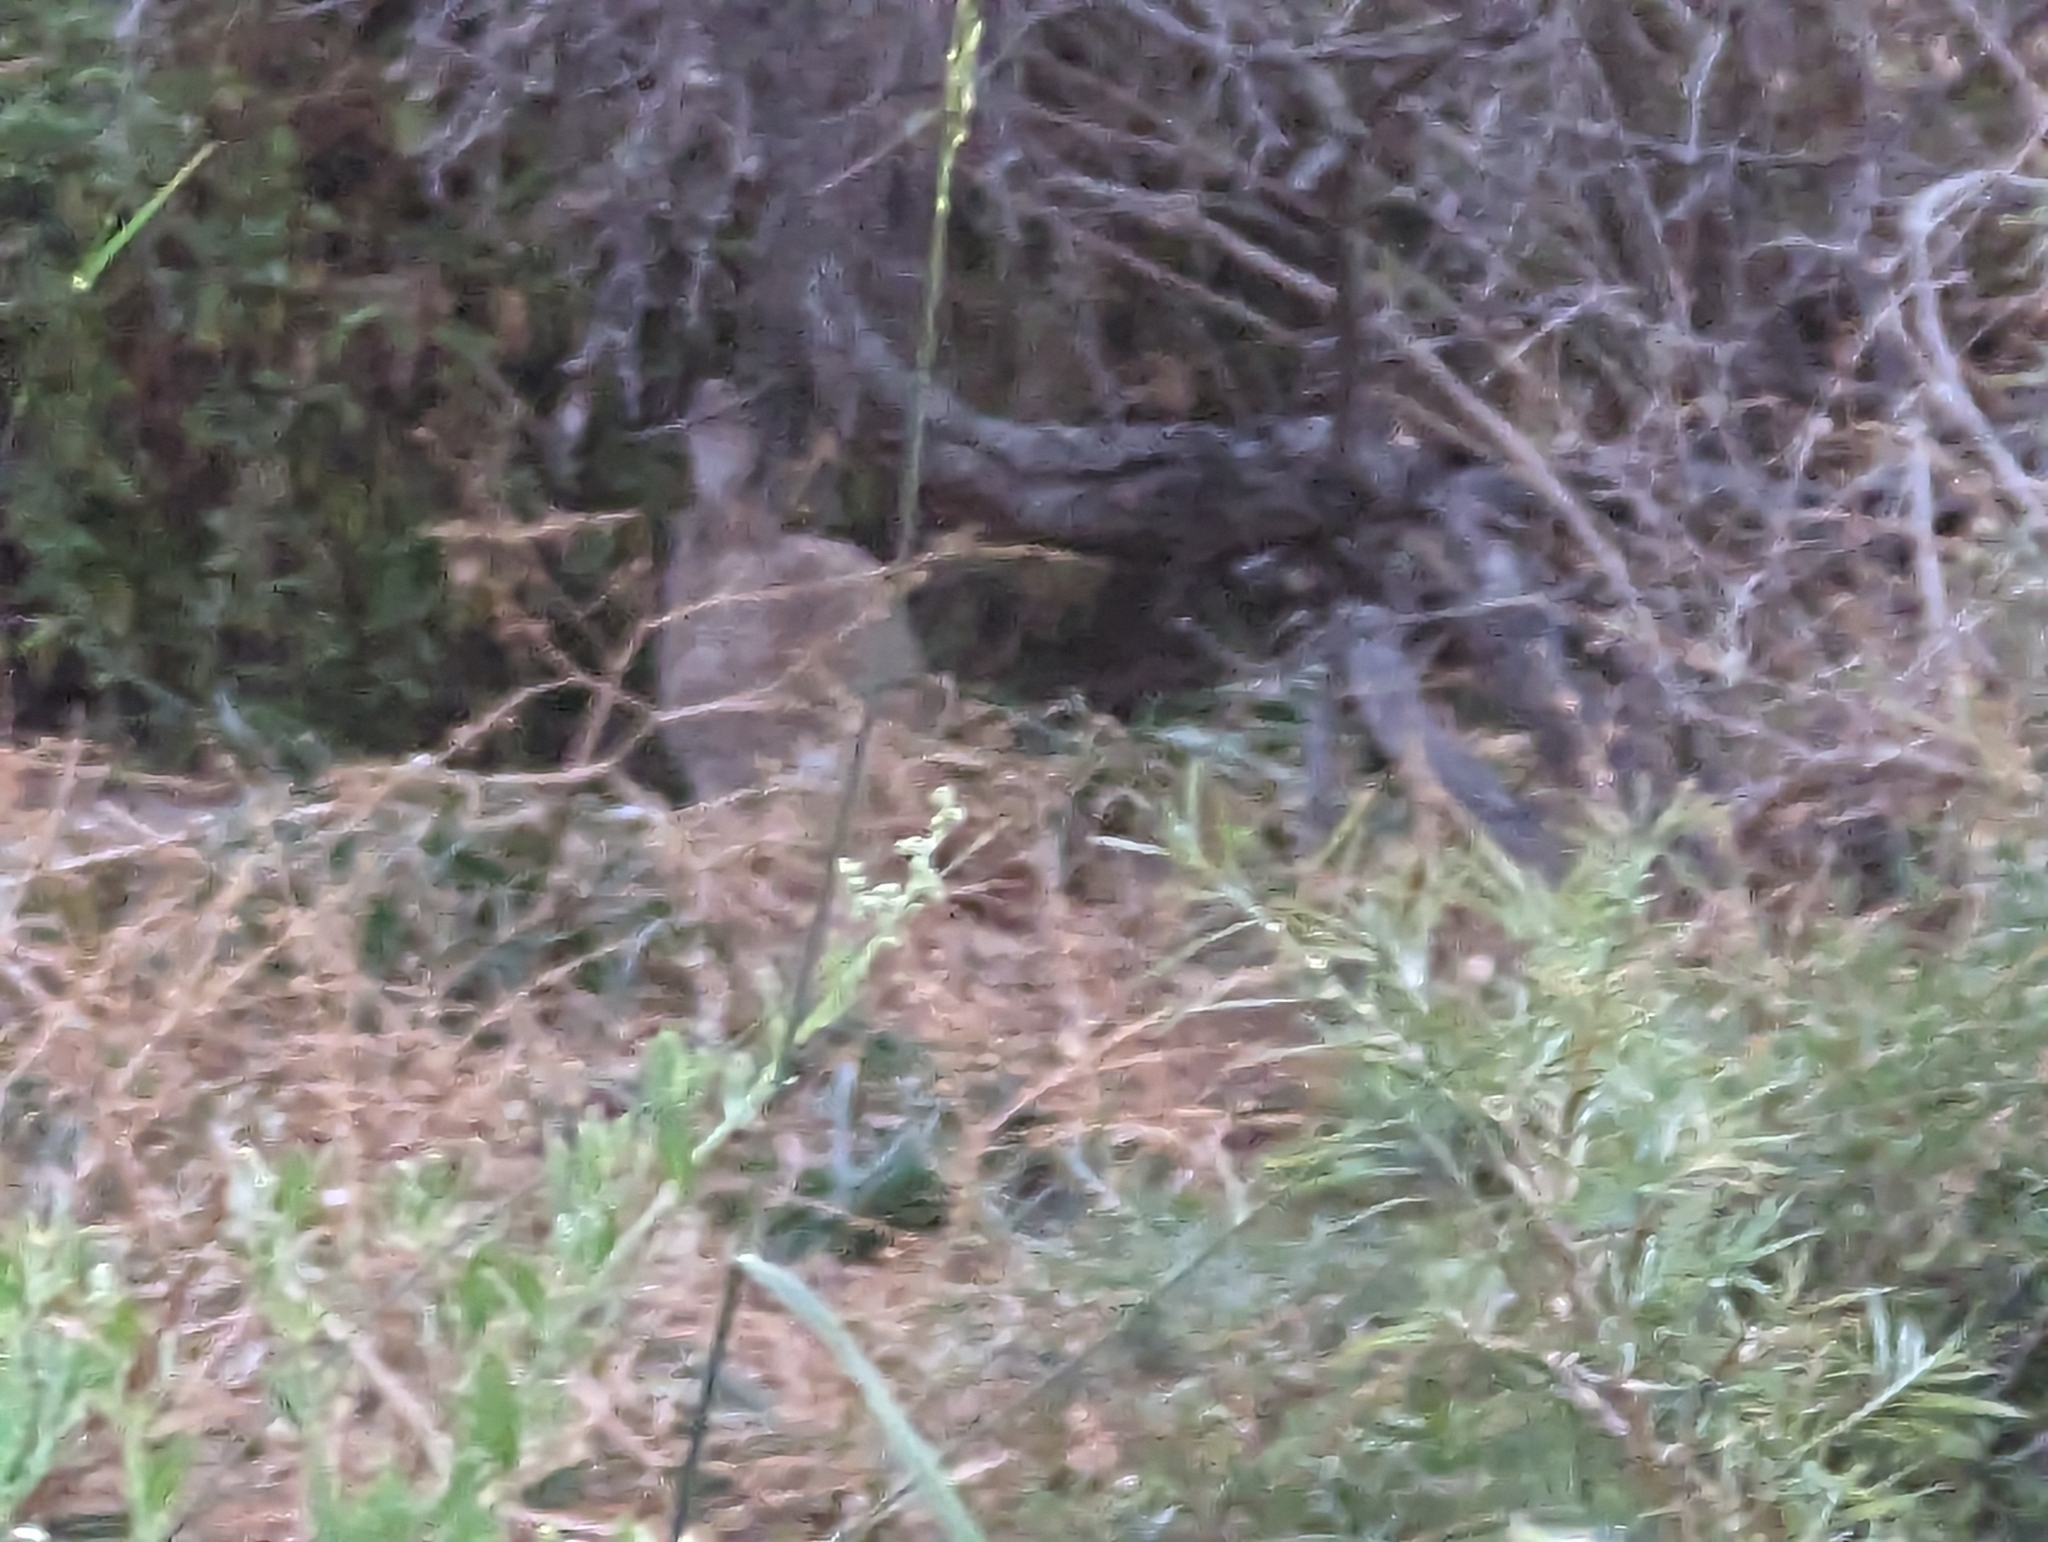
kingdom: Animalia
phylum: Chordata
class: Mammalia
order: Lagomorpha
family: Leporidae
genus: Oryctolagus
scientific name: Oryctolagus cuniculus
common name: European rabbit
